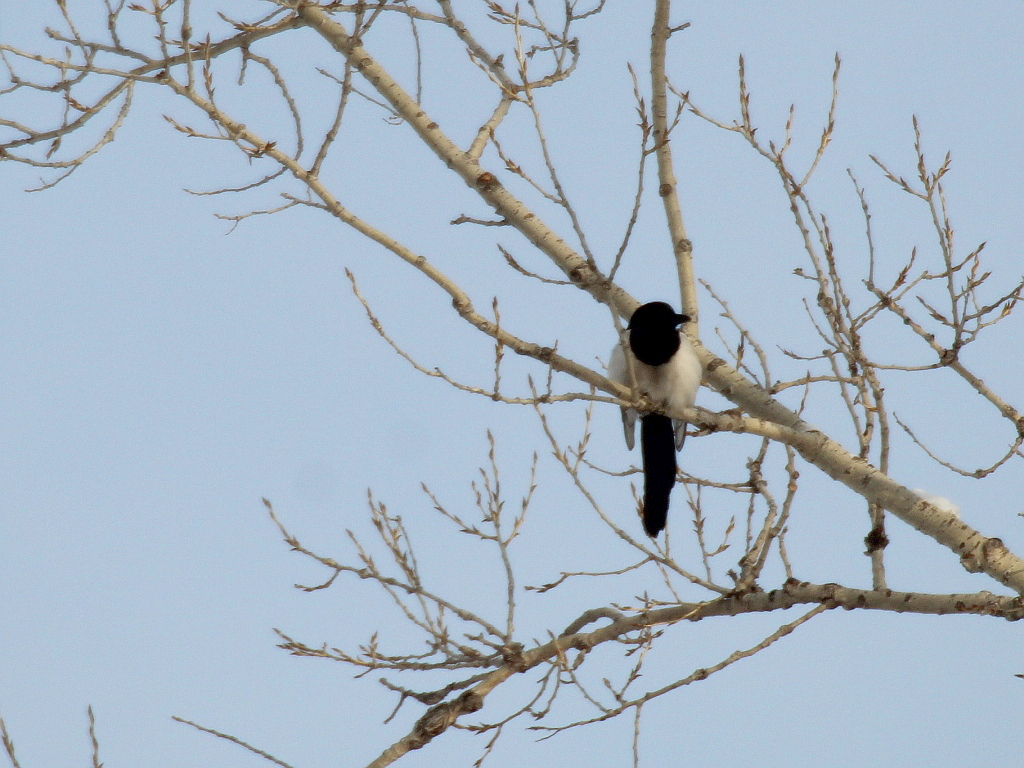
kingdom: Animalia
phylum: Chordata
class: Aves
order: Passeriformes
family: Corvidae
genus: Pica
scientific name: Pica pica
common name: Eurasian magpie
